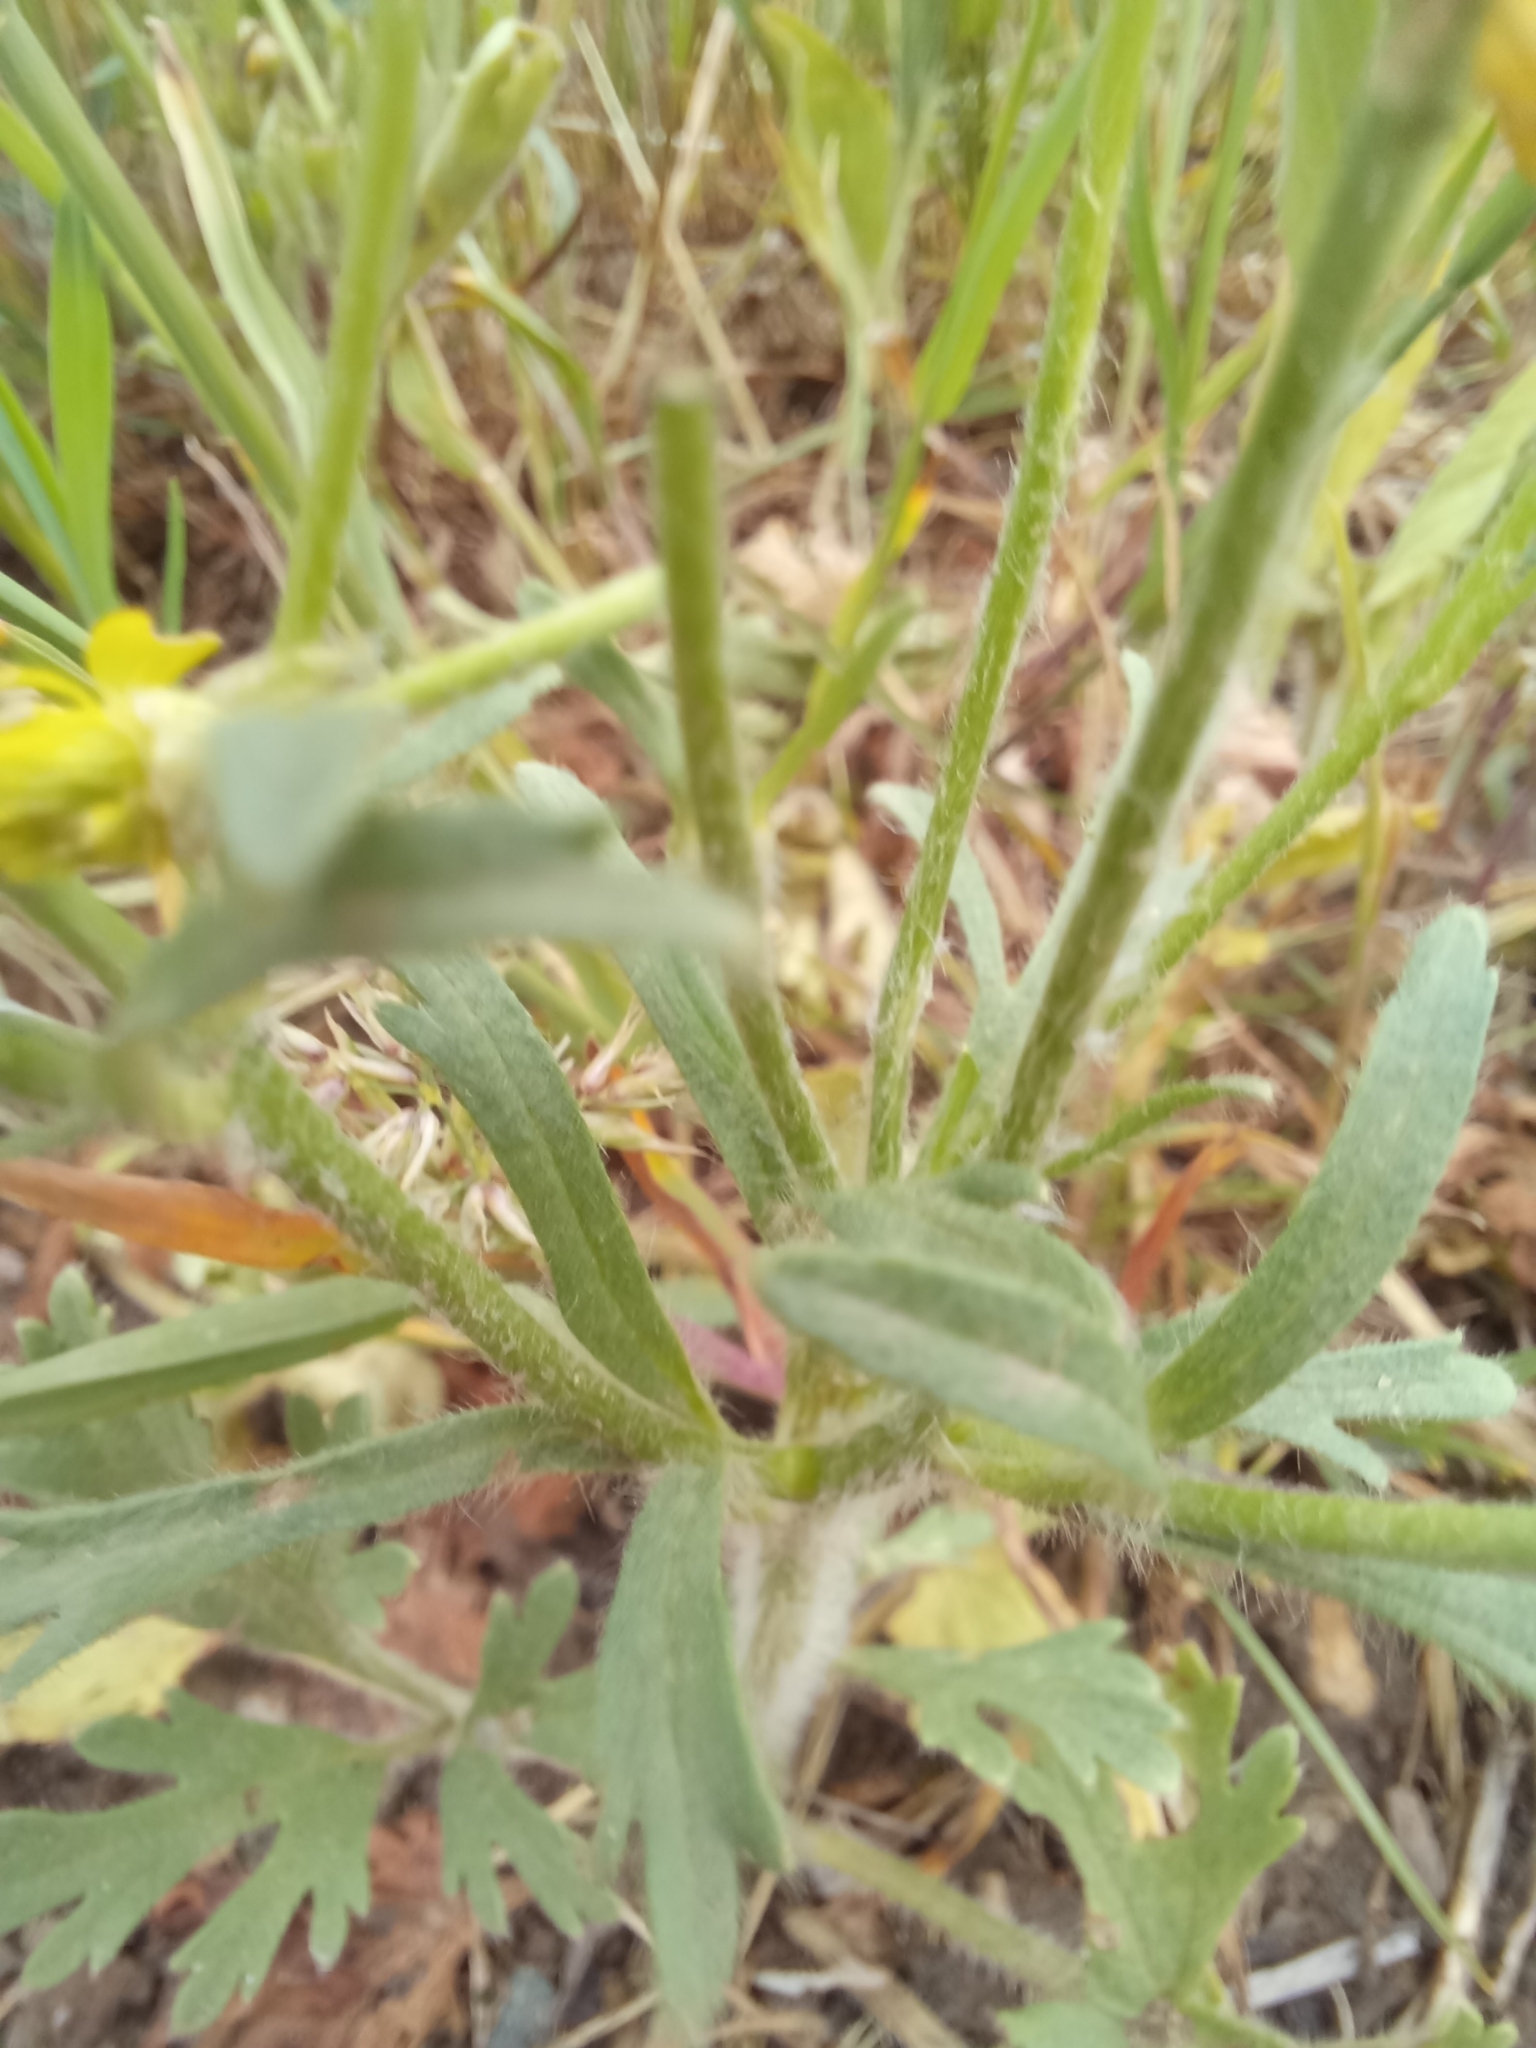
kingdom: Plantae
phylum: Tracheophyta
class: Magnoliopsida
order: Ranunculales
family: Ranunculaceae
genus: Ranunculus
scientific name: Ranunculus oxyspermus
